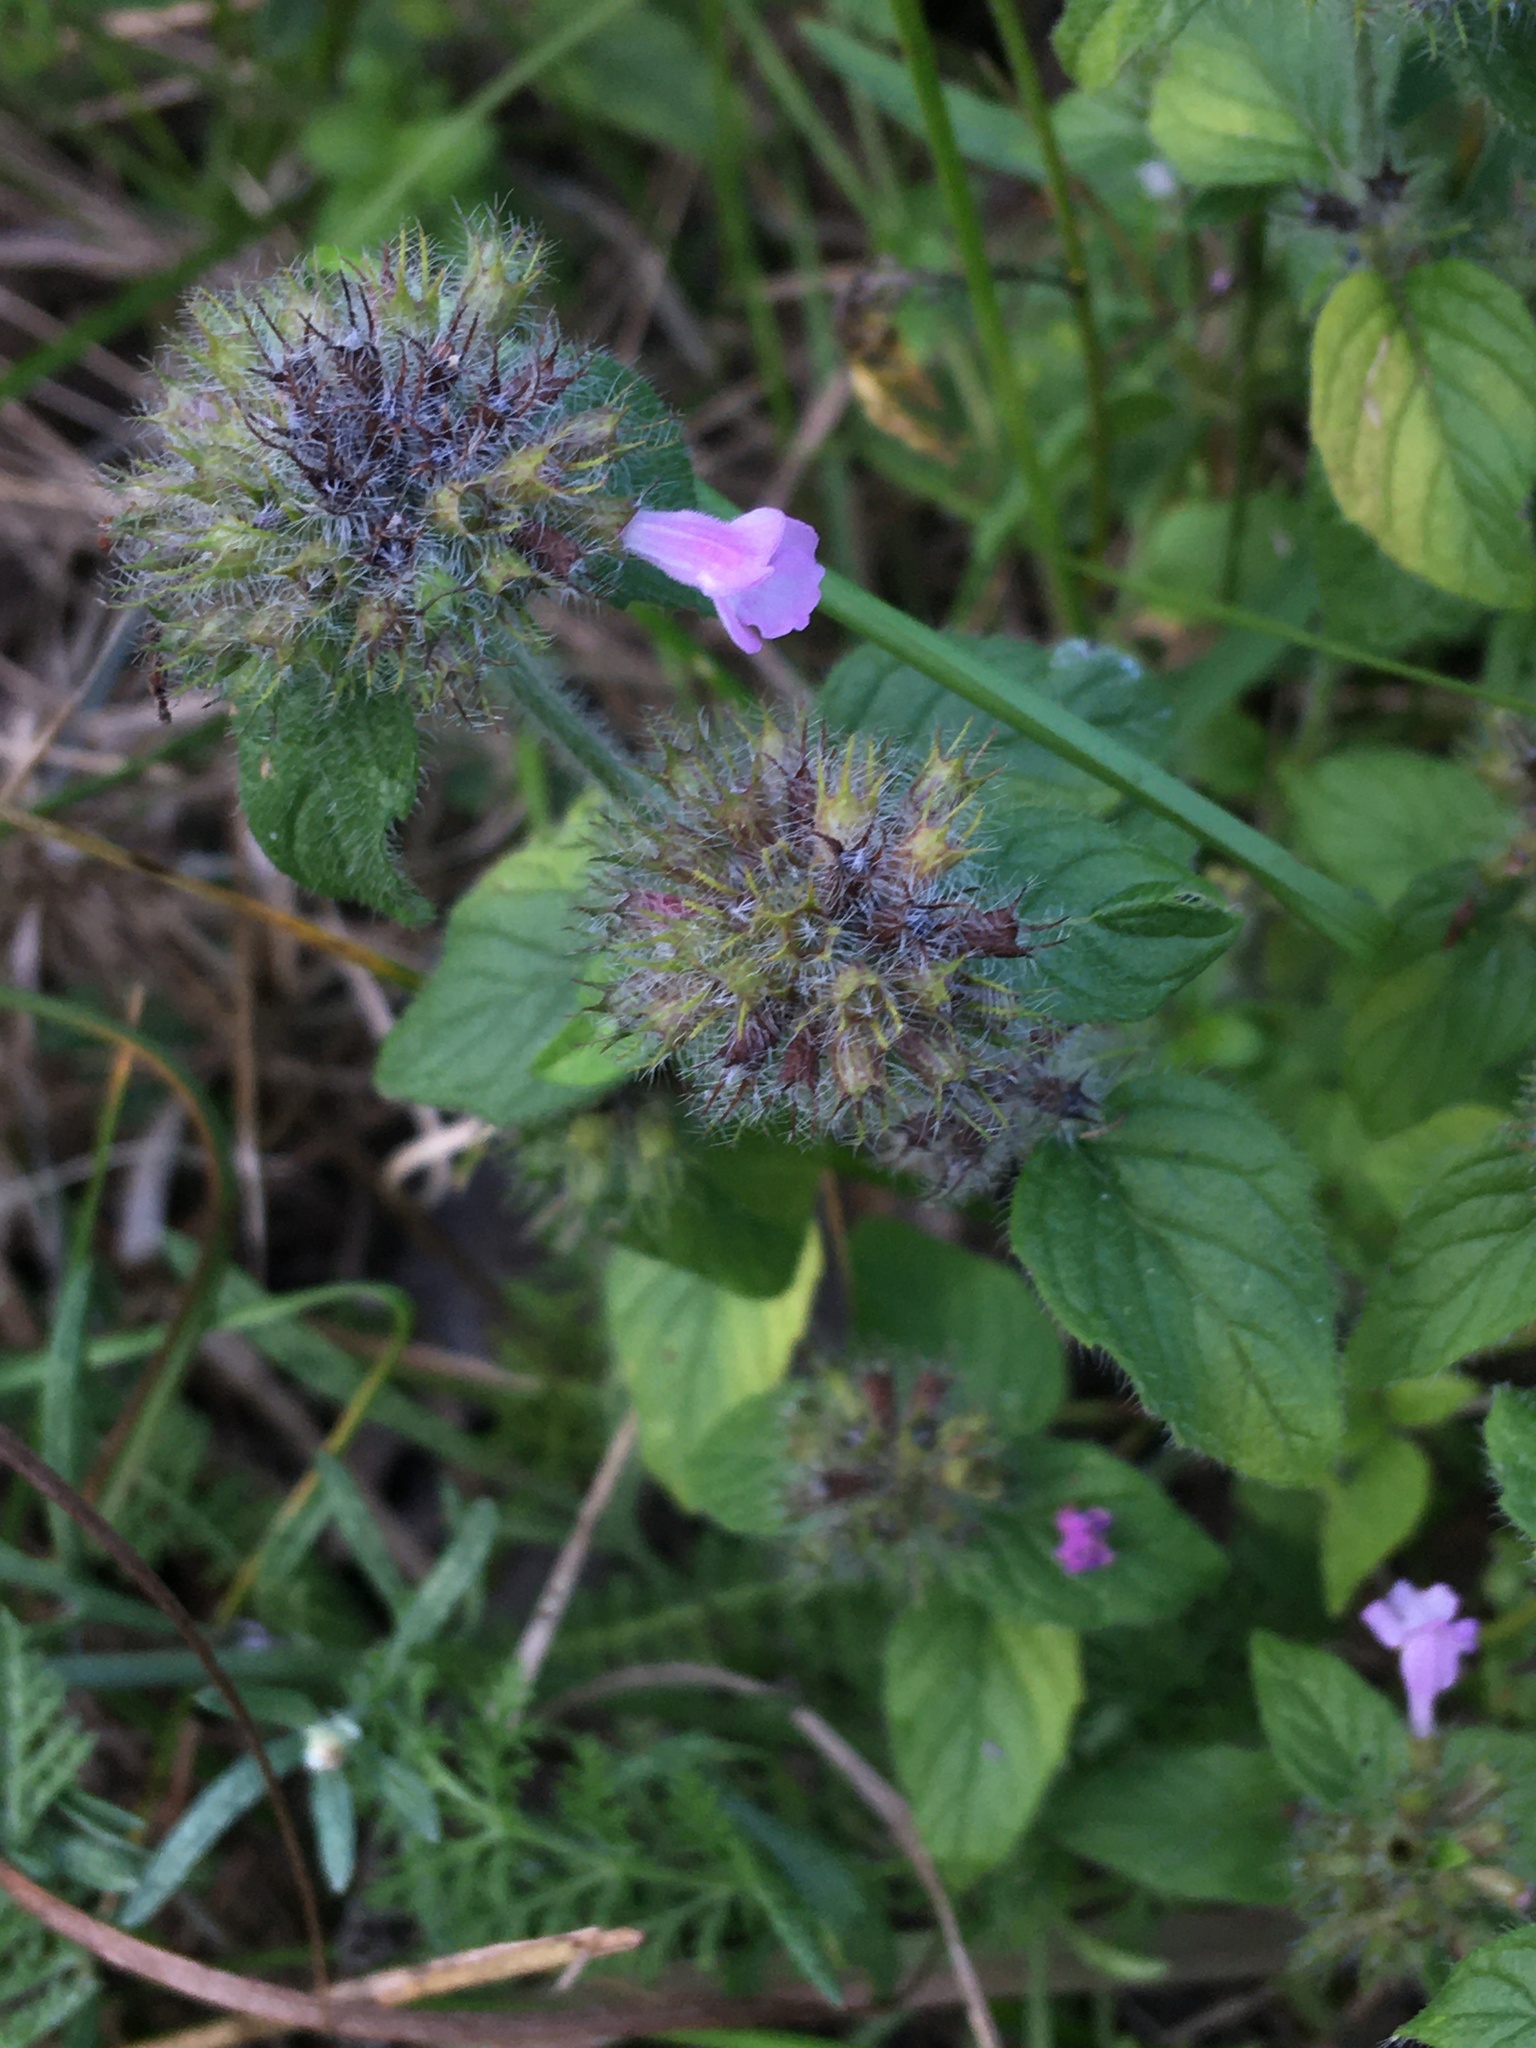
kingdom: Plantae
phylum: Tracheophyta
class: Magnoliopsida
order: Lamiales
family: Lamiaceae
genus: Clinopodium
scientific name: Clinopodium vulgare
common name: Wild basil
